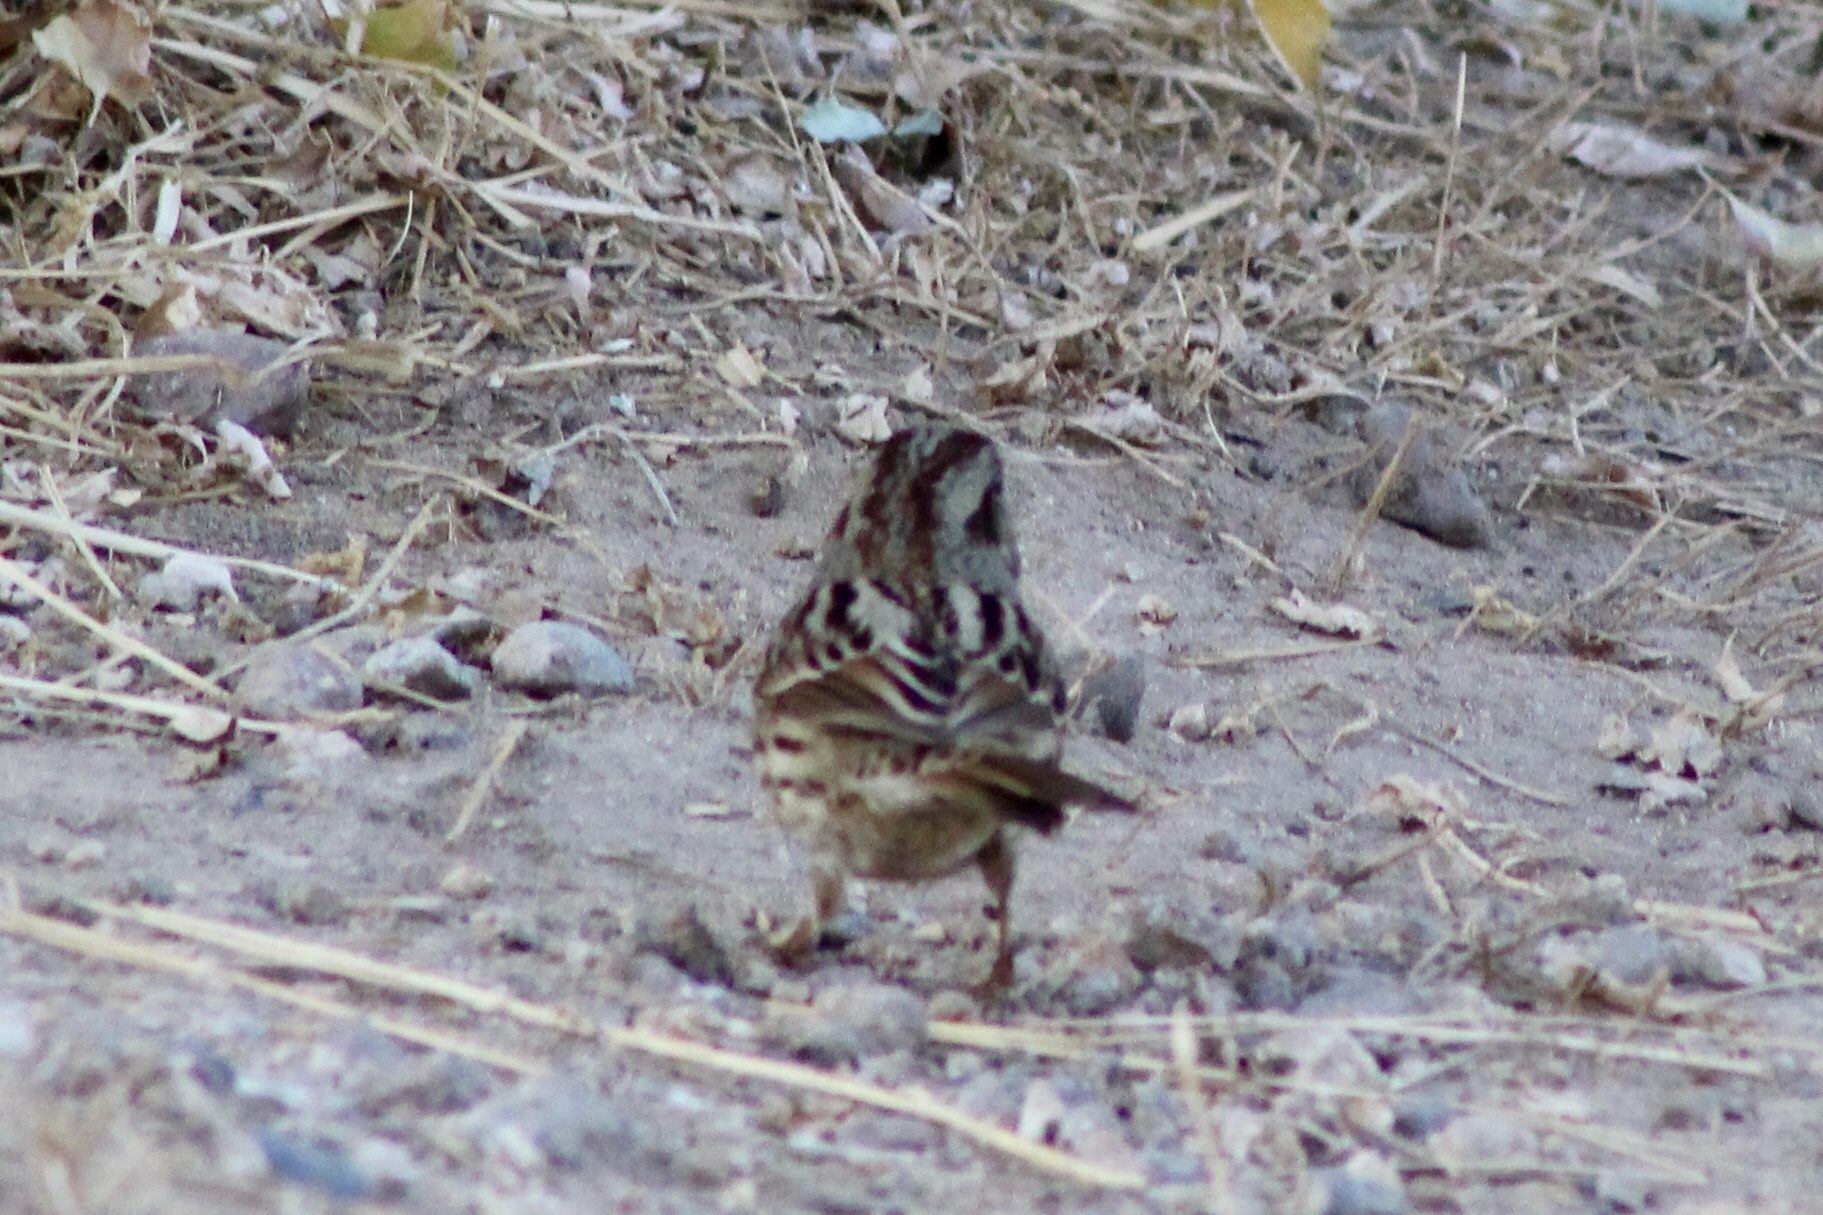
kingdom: Animalia
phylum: Chordata
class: Aves
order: Passeriformes
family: Passerellidae
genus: Melospiza
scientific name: Melospiza melodia
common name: Song sparrow
